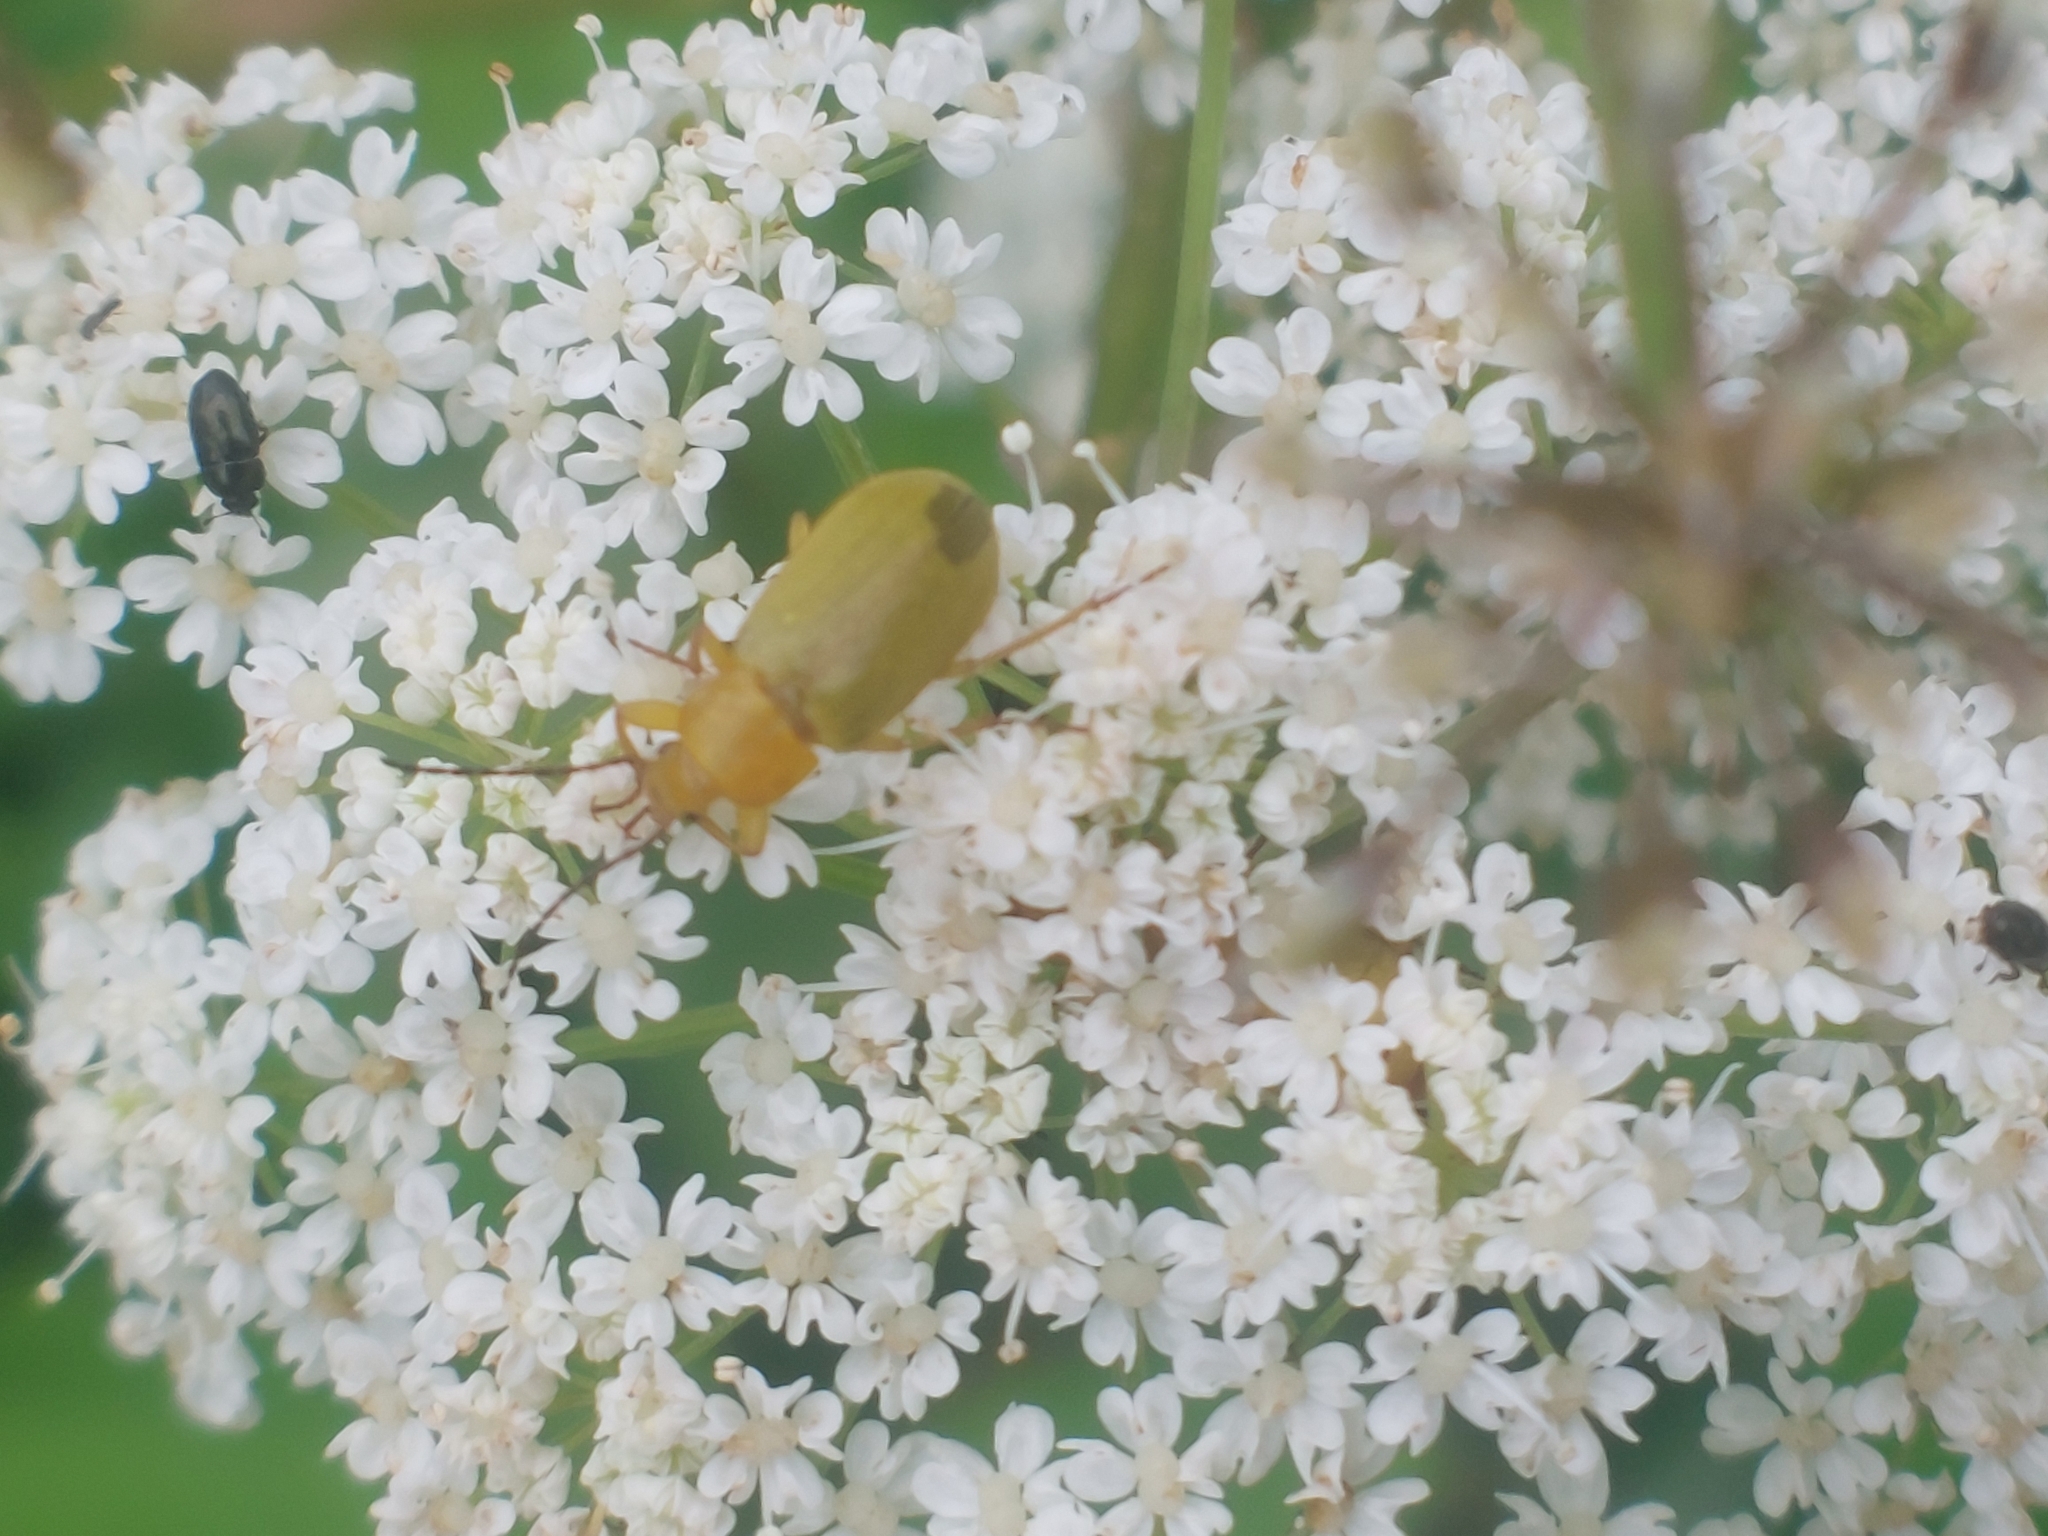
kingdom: Animalia
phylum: Arthropoda
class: Insecta
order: Coleoptera
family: Tenebrionidae
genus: Cteniopus
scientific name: Cteniopus sulphureus
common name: Sulphur beetle
